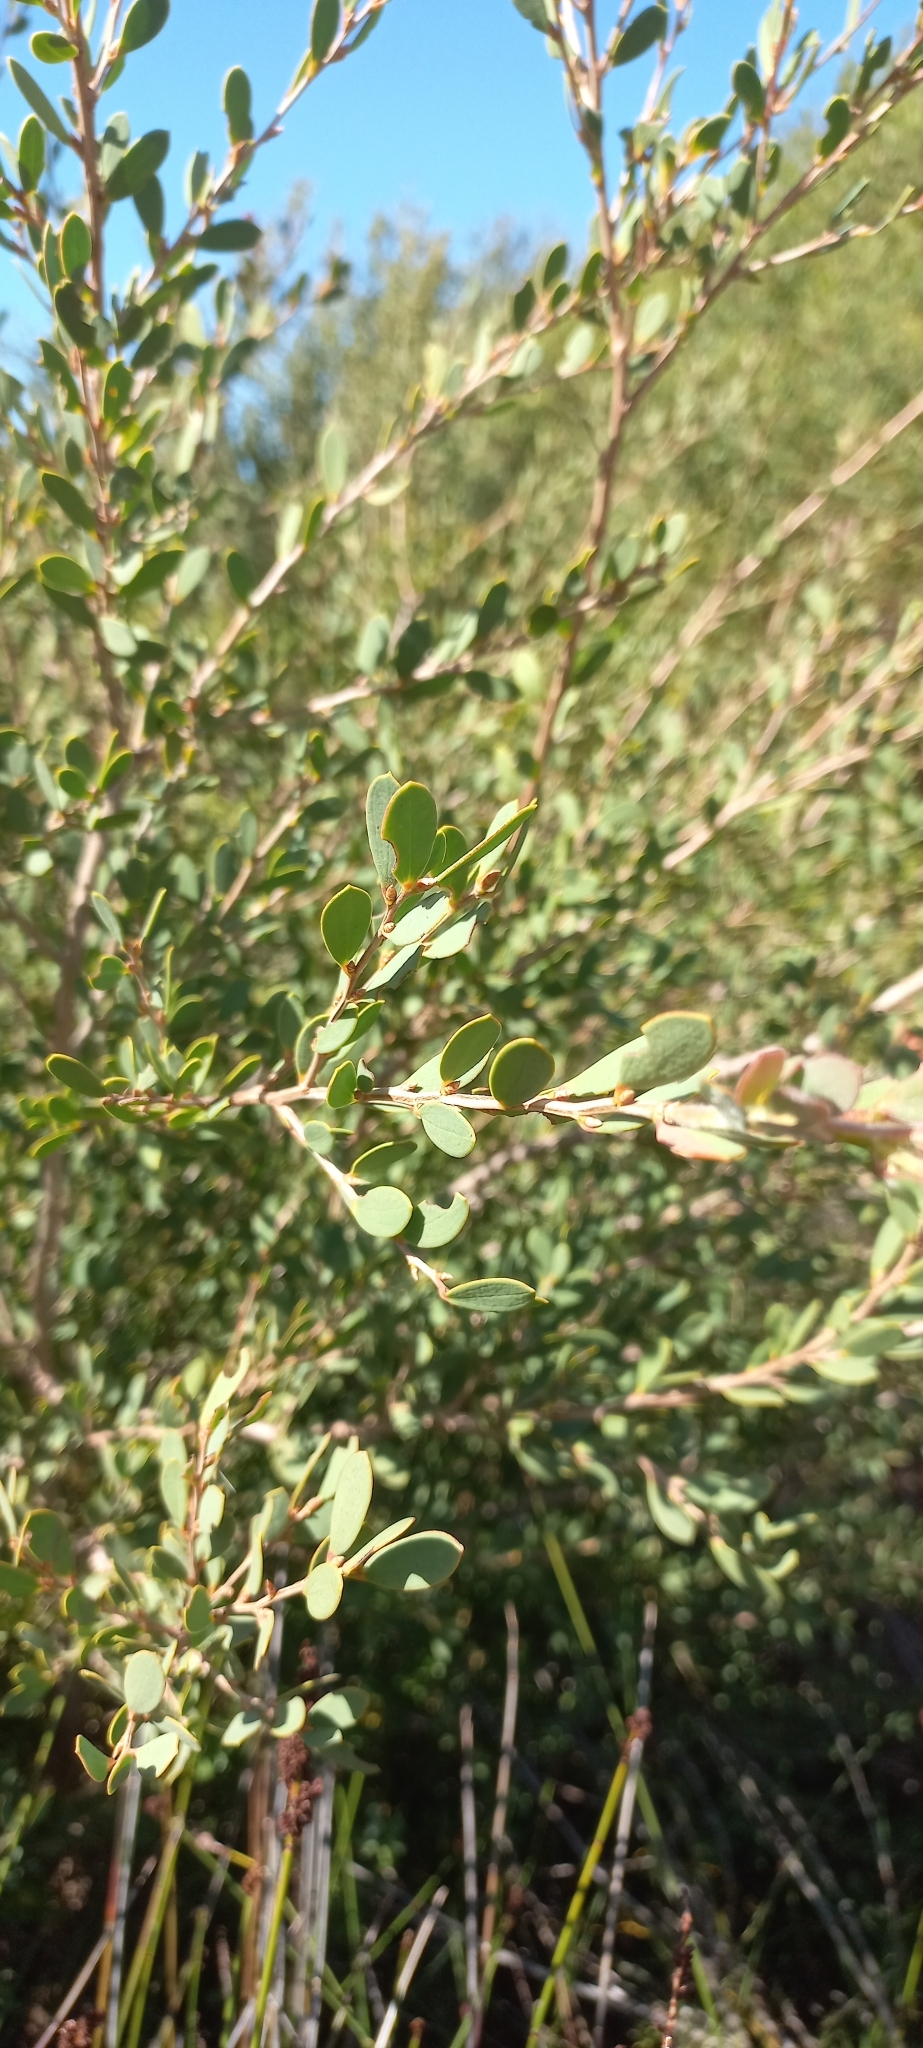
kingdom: Plantae
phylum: Tracheophyta
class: Magnoliopsida
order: Myrtales
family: Myrtaceae
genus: Leptospermum
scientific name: Leptospermum laevigatum
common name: Australian teatree
